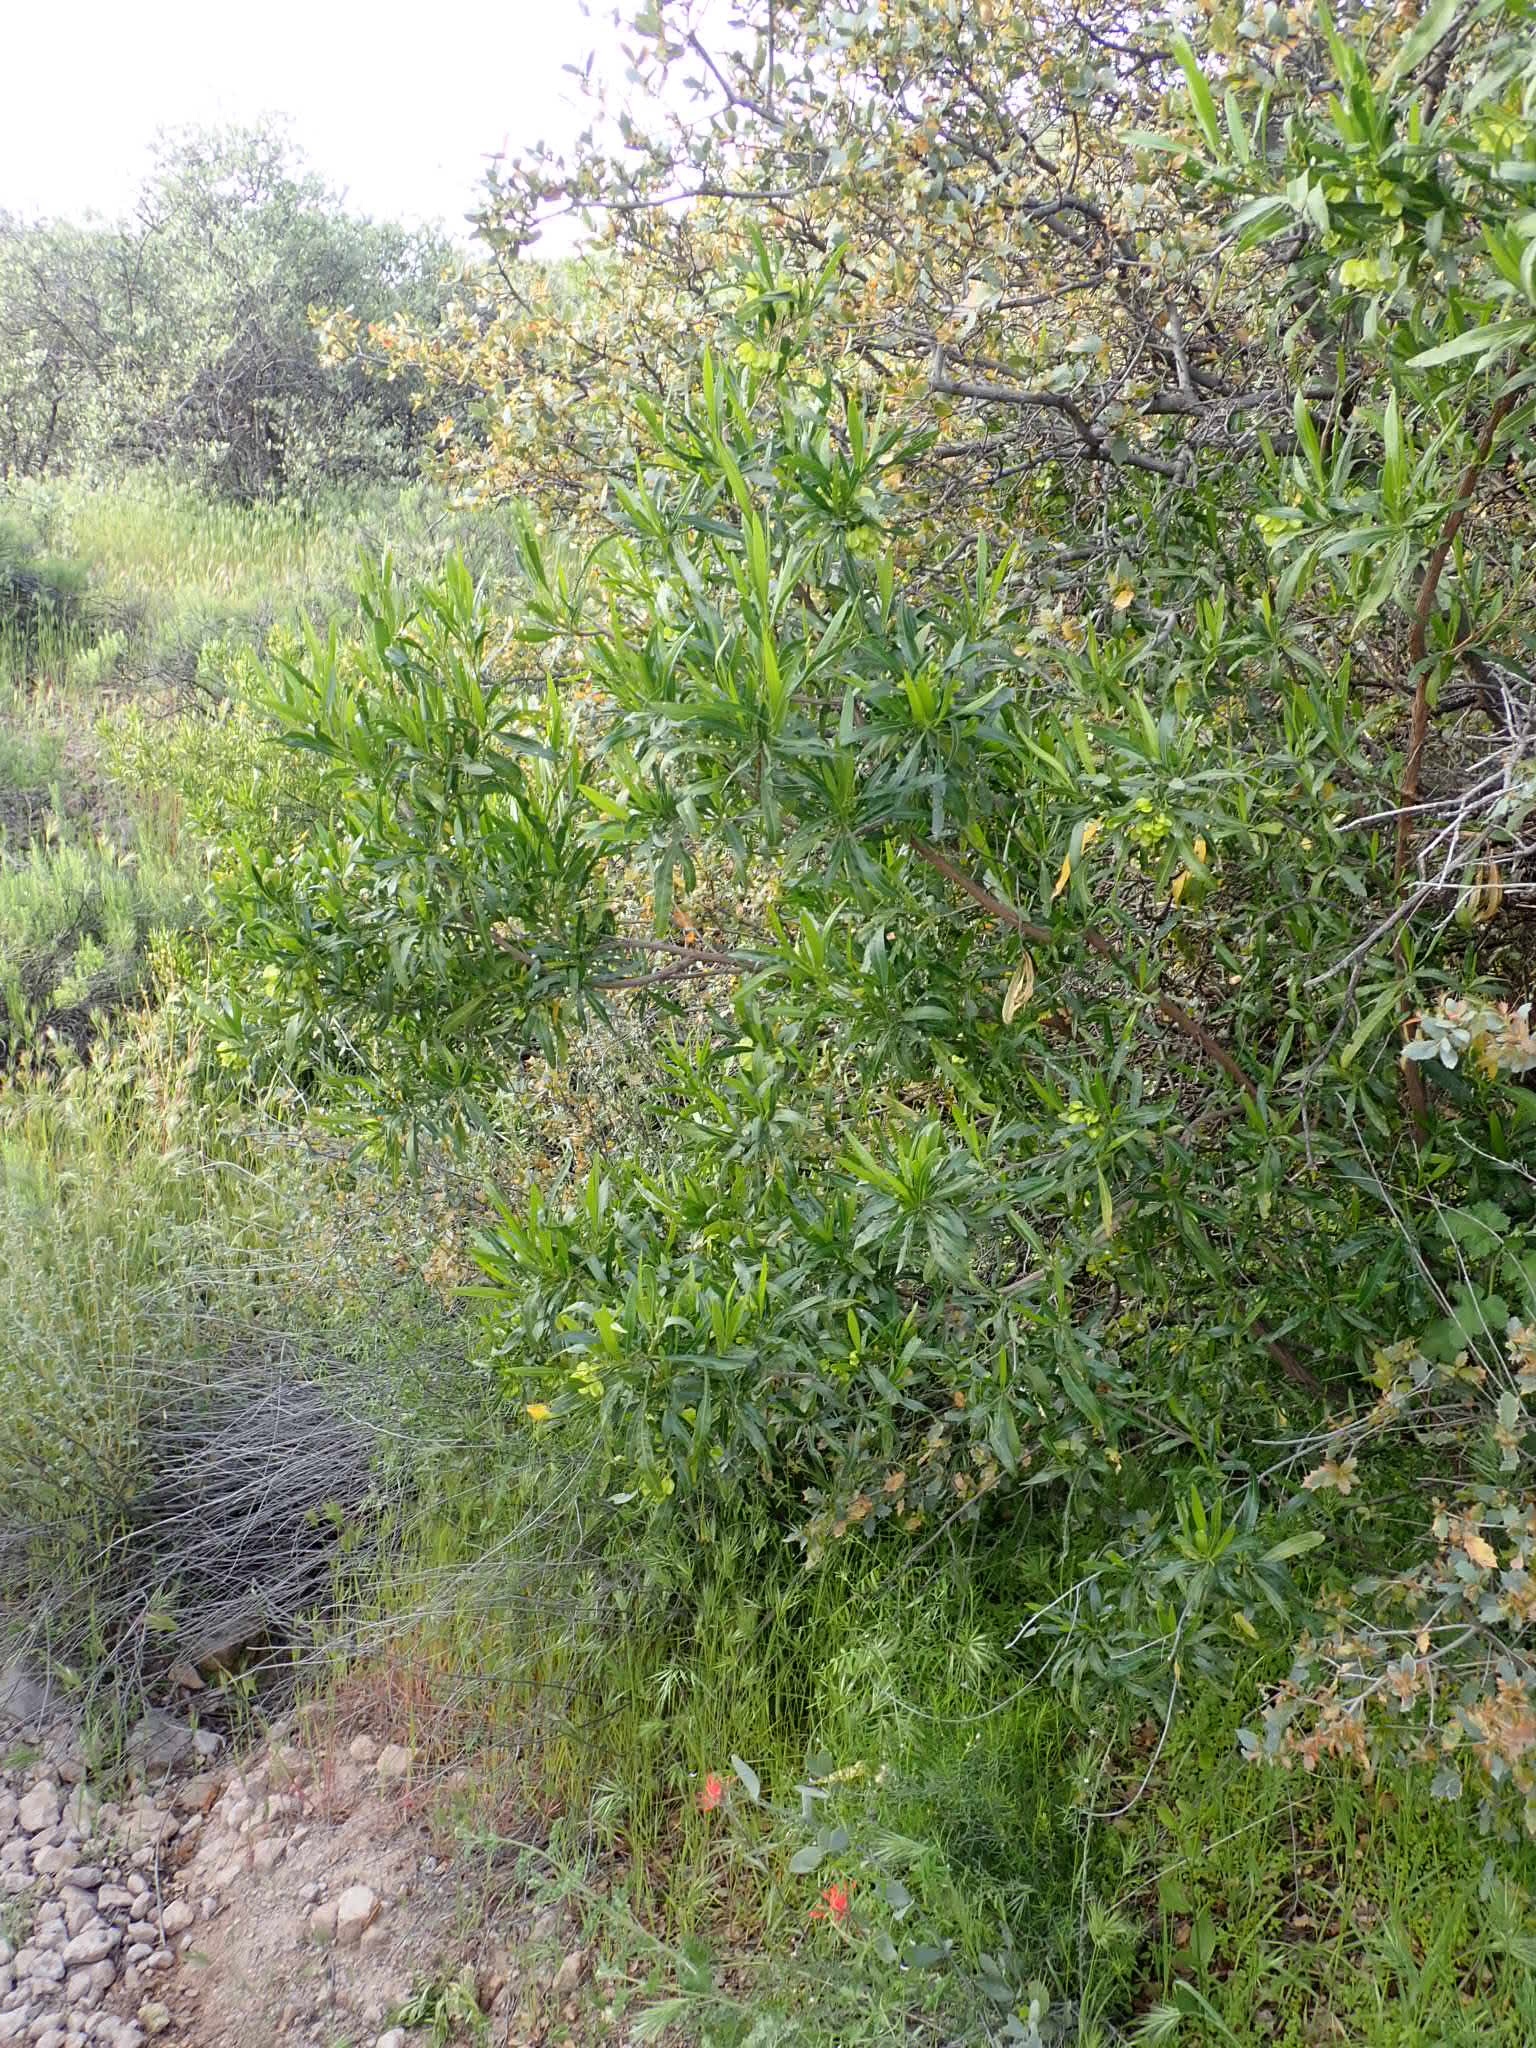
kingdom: Plantae
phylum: Tracheophyta
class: Magnoliopsida
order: Sapindales
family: Sapindaceae
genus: Dodonaea
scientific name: Dodonaea viscosa
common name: Hopbush
